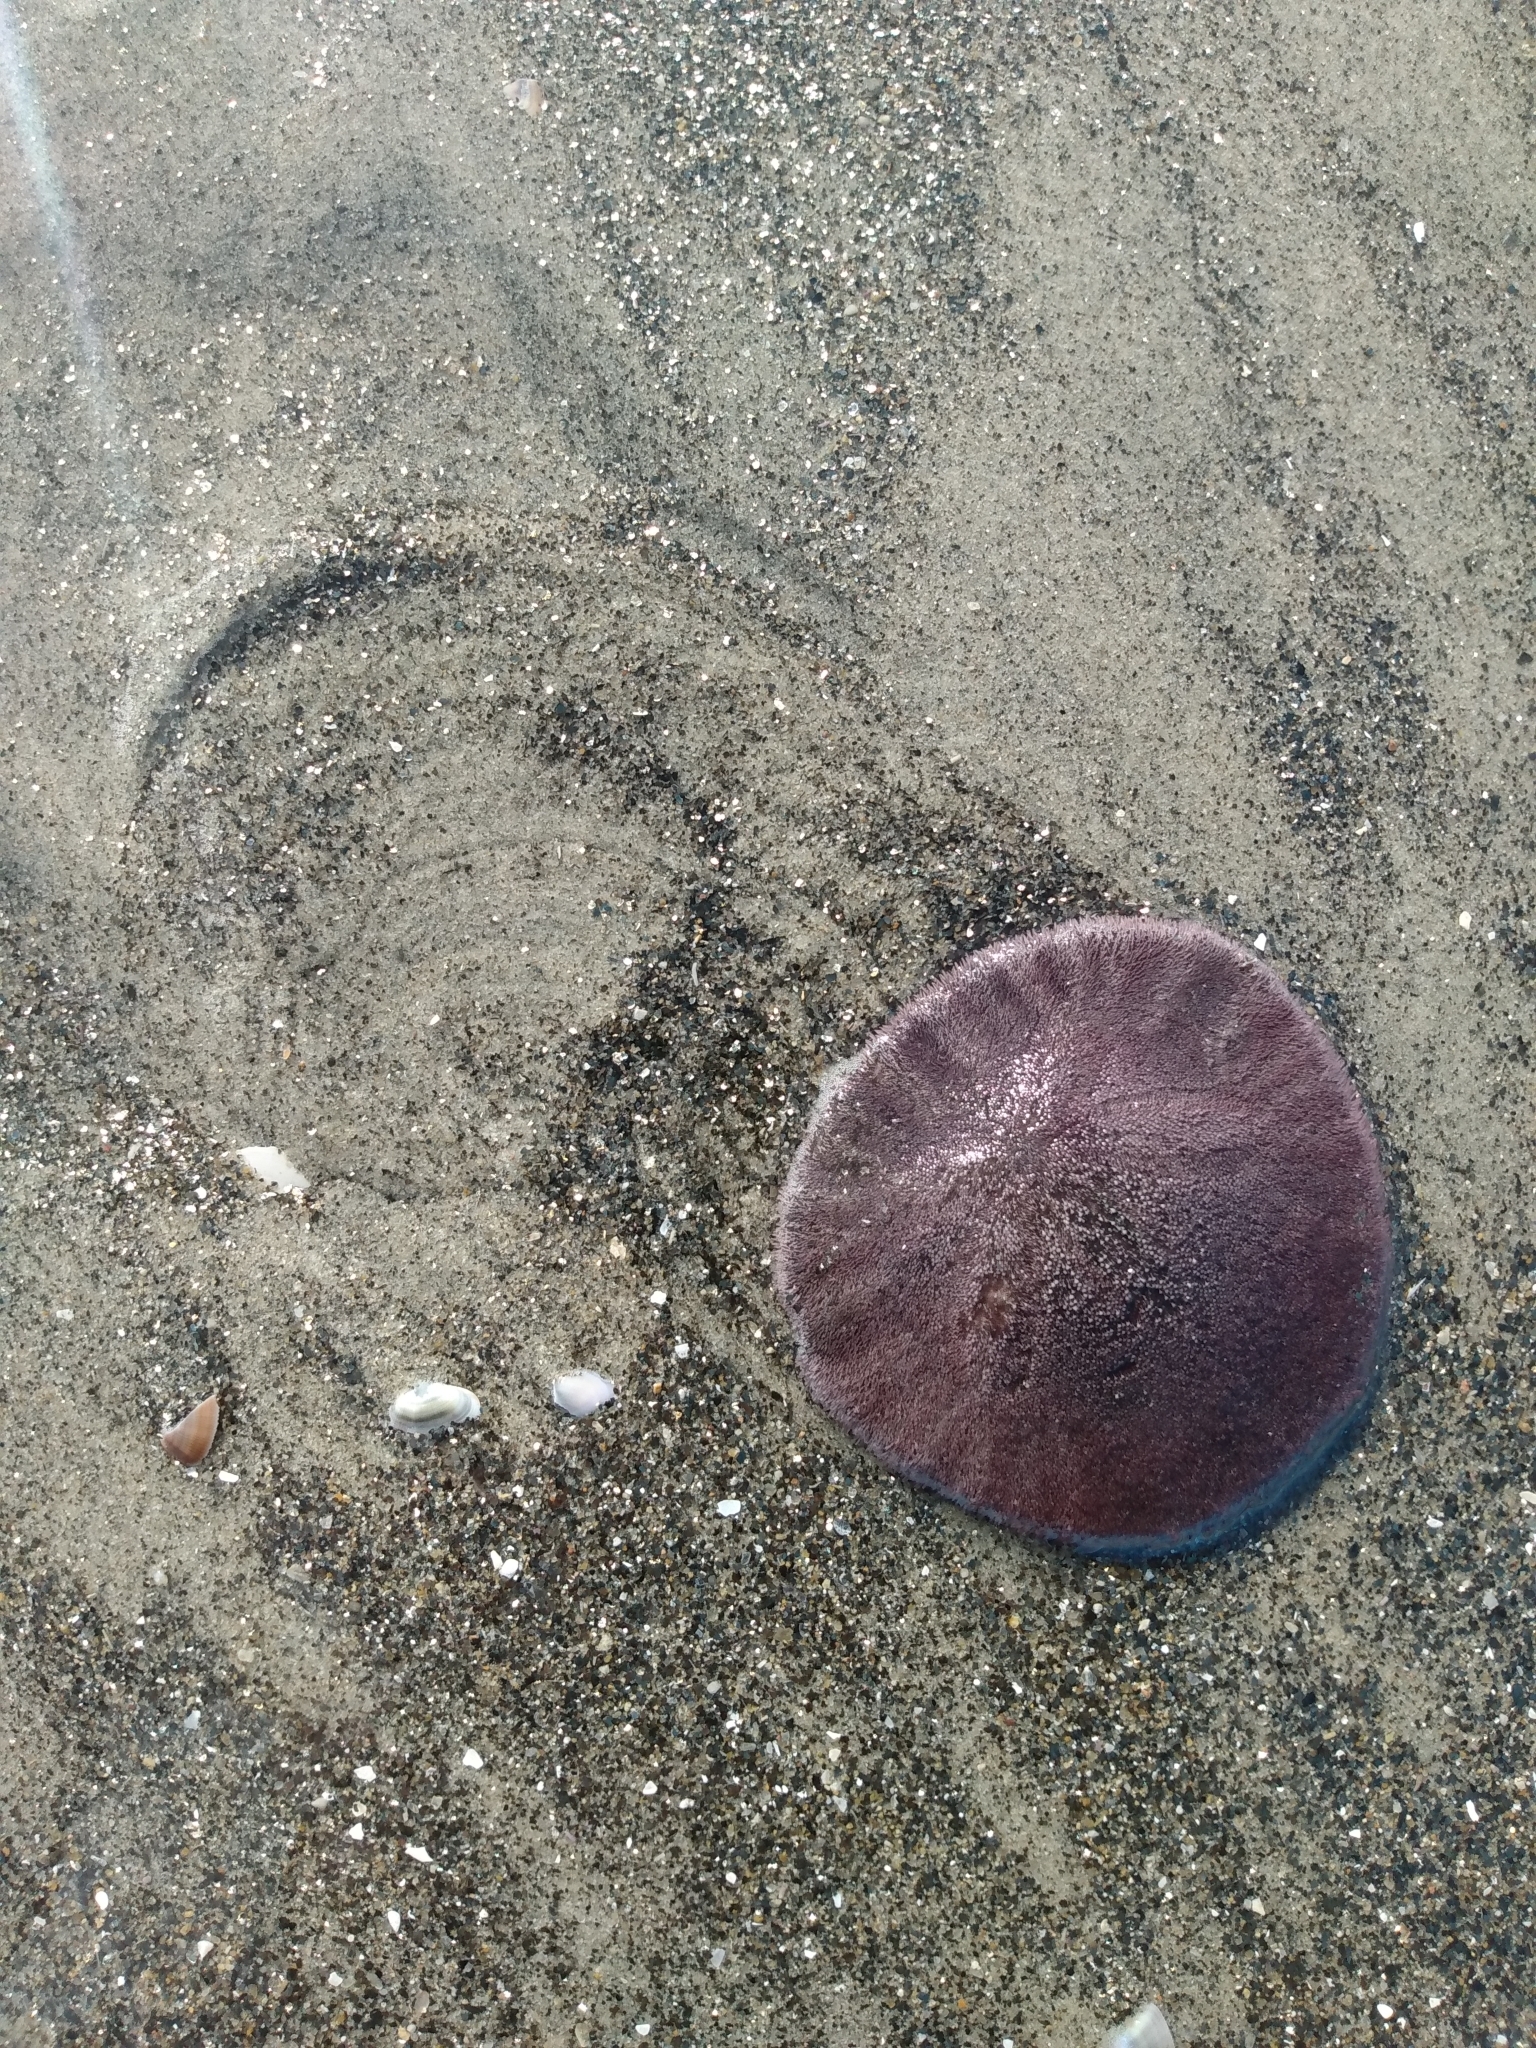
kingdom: Animalia
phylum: Echinodermata
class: Echinoidea
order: Echinolampadacea
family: Dendrasteridae
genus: Dendraster
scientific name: Dendraster excentricus
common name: Eccentric sand dollar sea urchin
